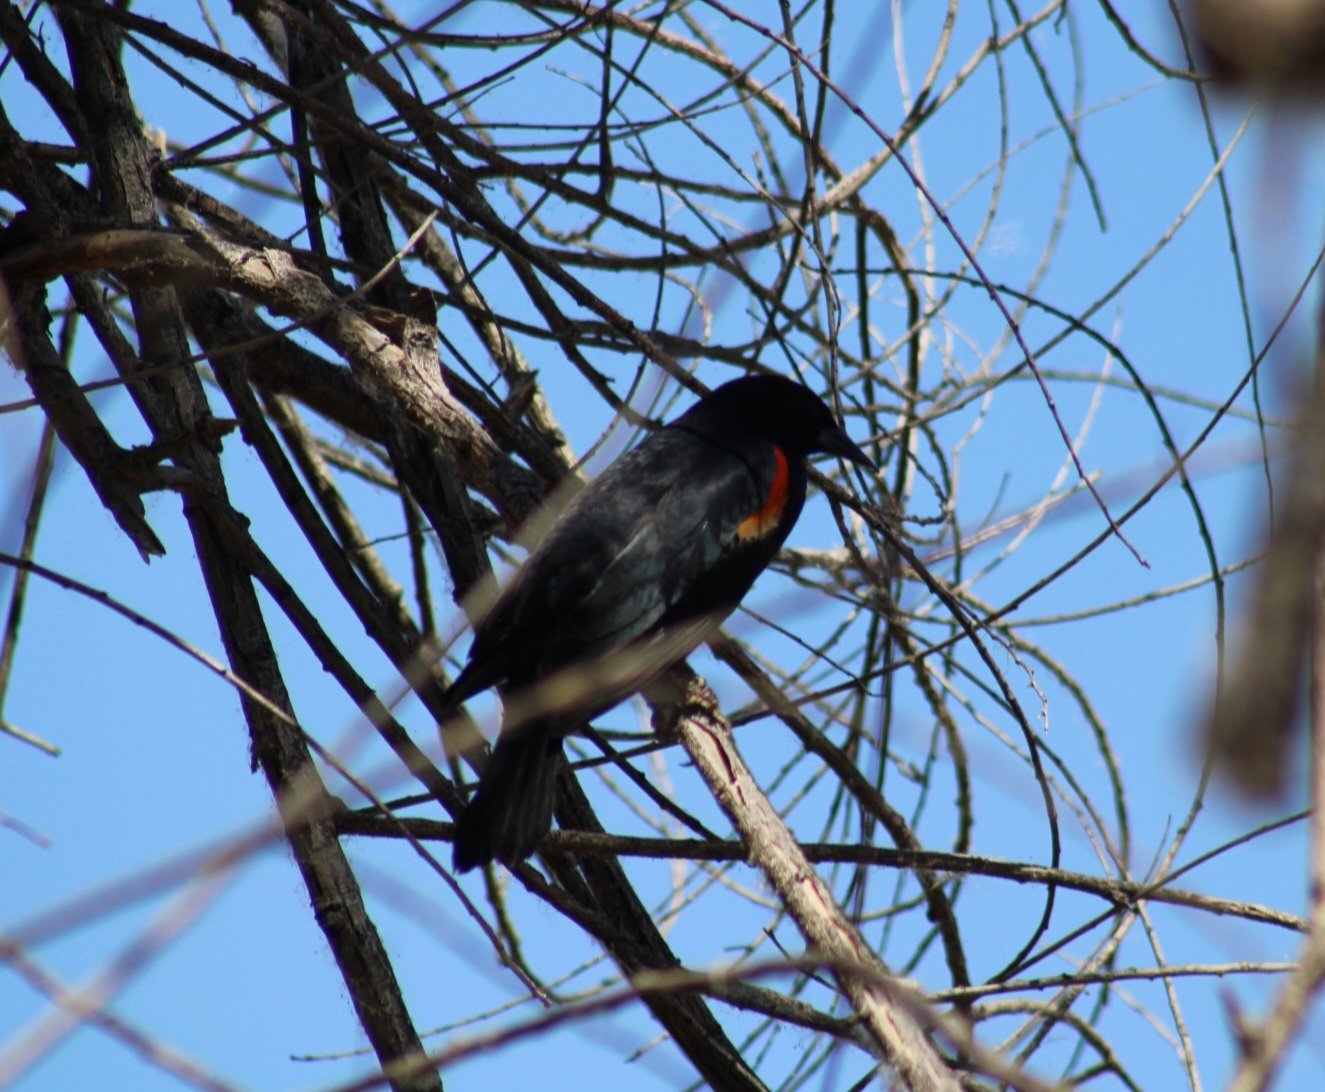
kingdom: Animalia
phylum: Chordata
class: Aves
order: Passeriformes
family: Icteridae
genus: Agelaius
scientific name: Agelaius phoeniceus
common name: Red-winged blackbird
